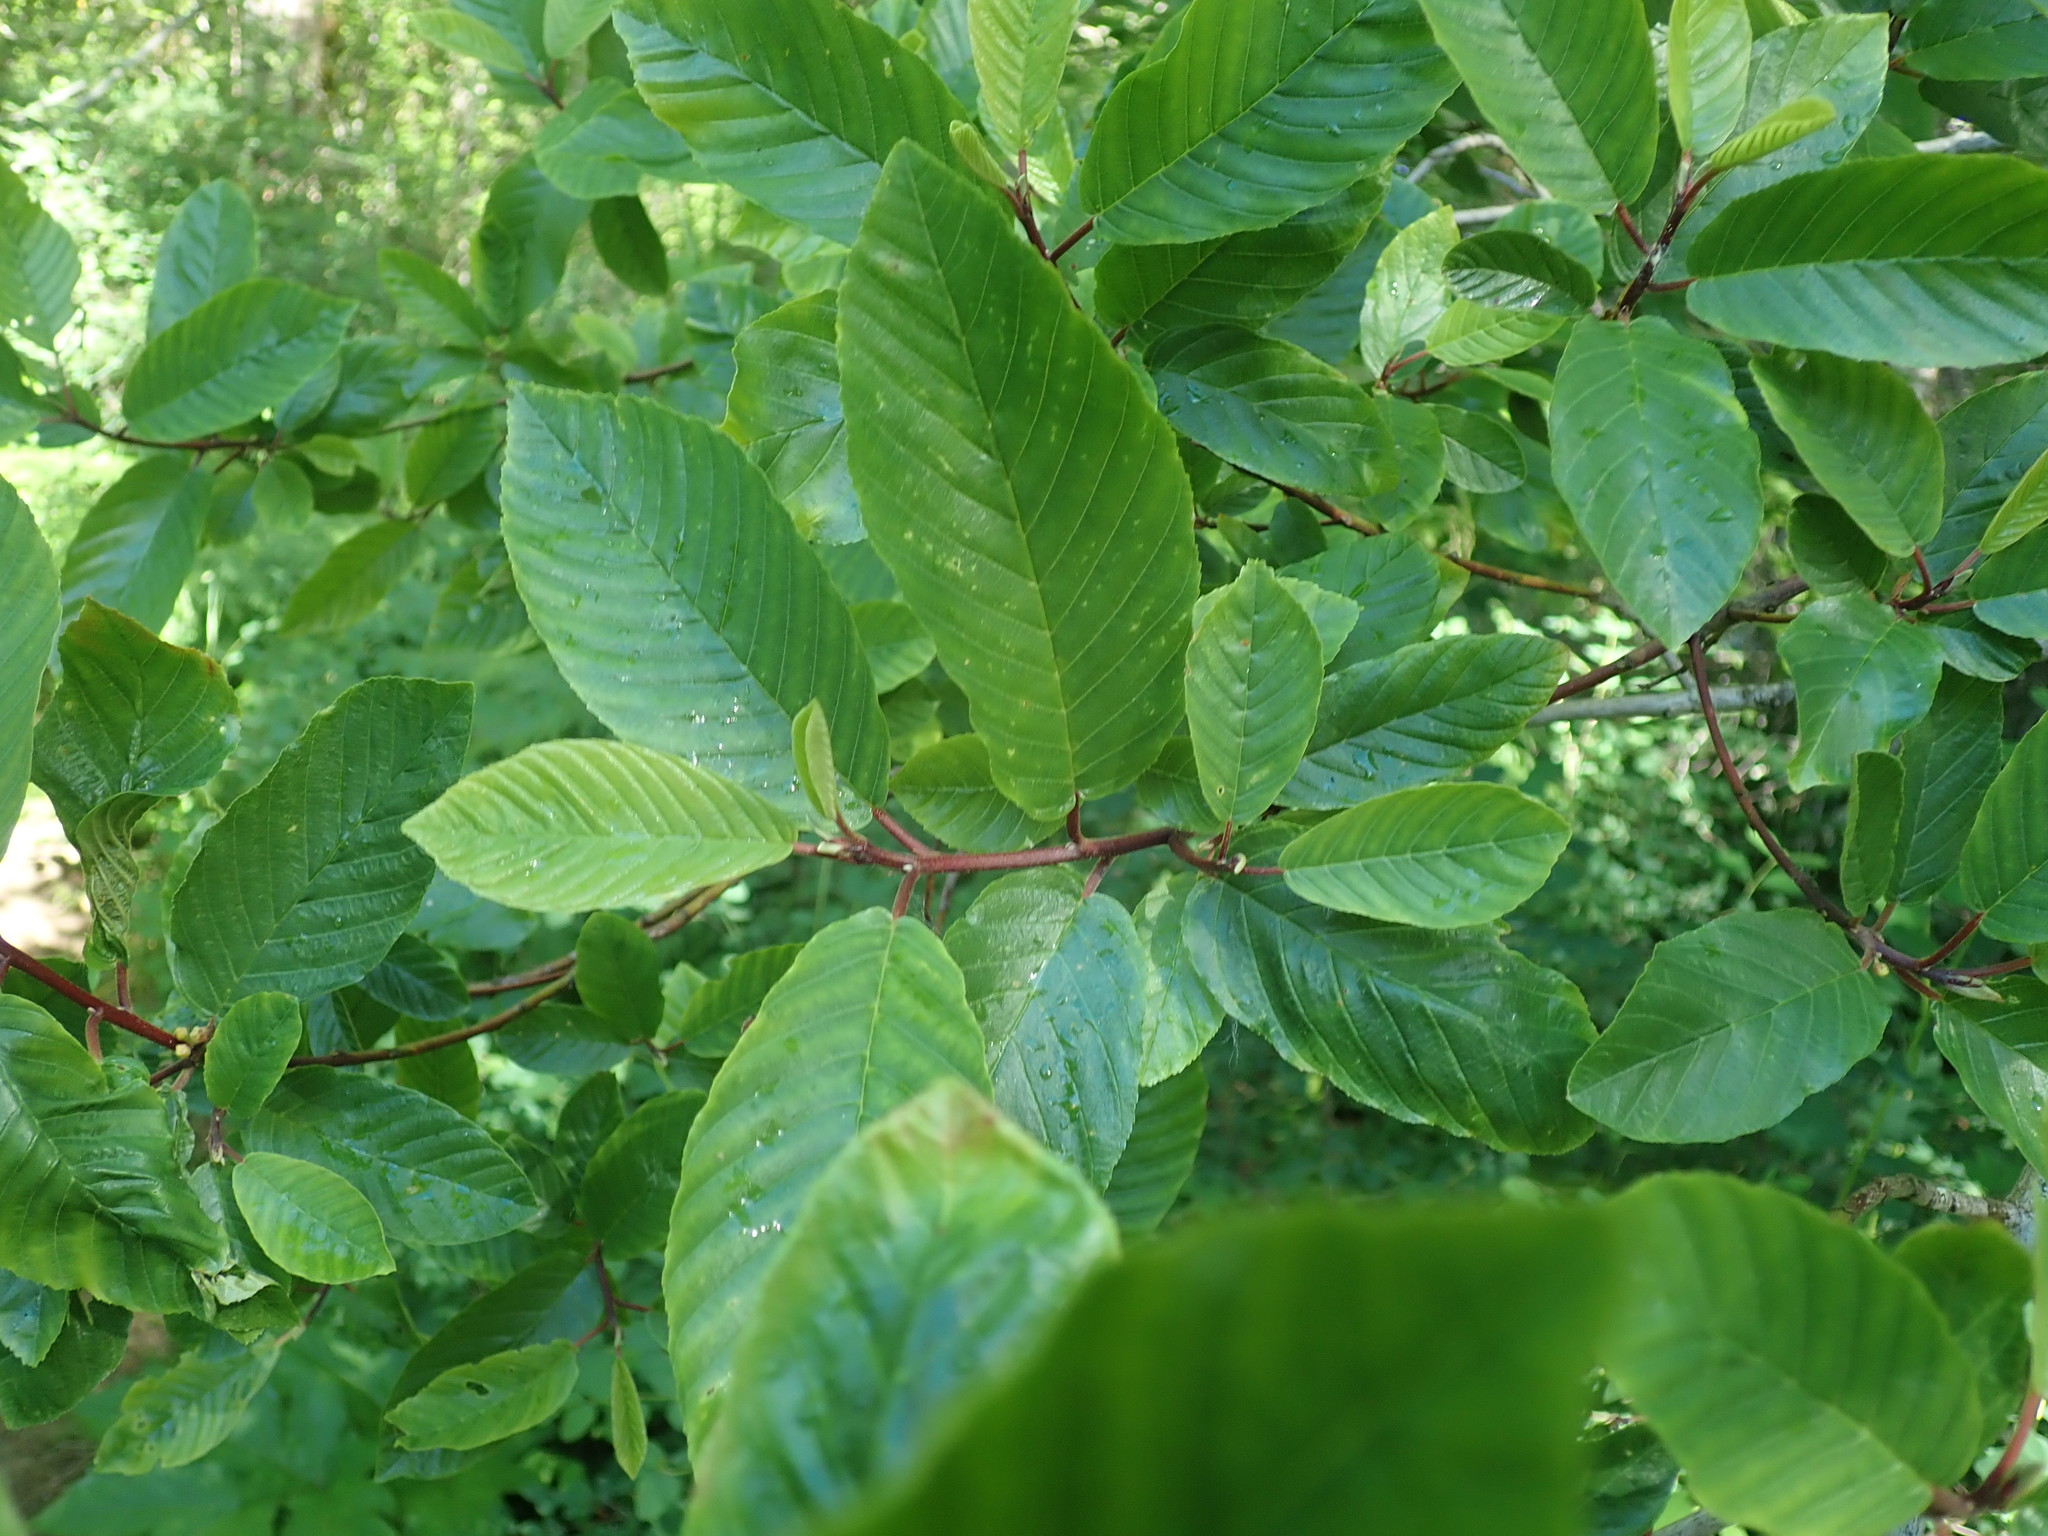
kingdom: Plantae
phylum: Tracheophyta
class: Magnoliopsida
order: Rosales
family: Rhamnaceae
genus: Frangula
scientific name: Frangula purshiana
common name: Cascara buckthorn
